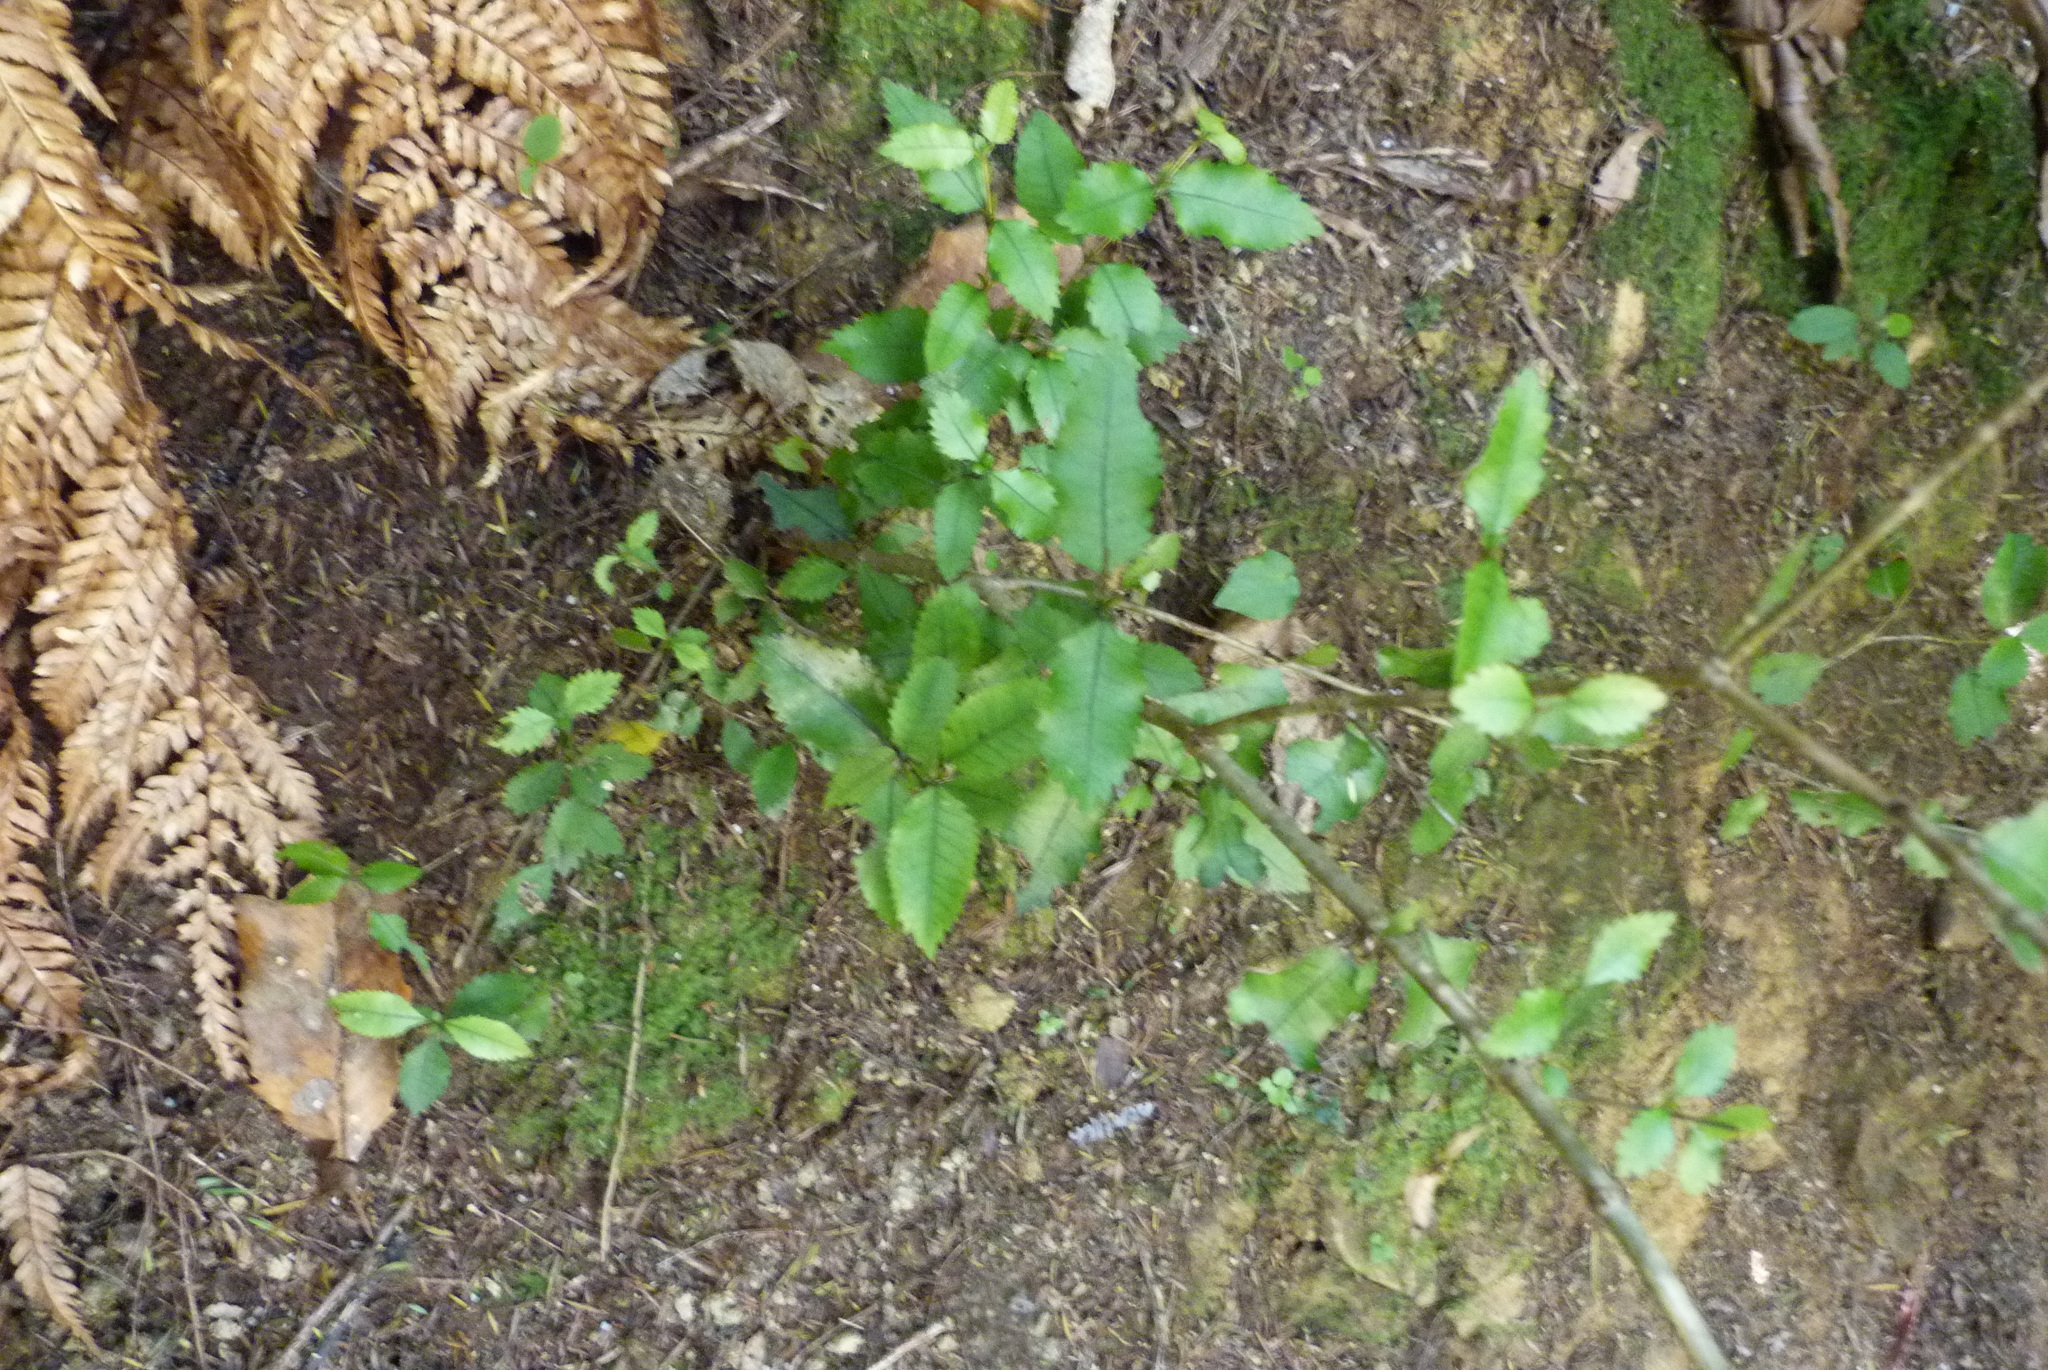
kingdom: Plantae
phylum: Tracheophyta
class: Magnoliopsida
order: Oxalidales
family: Cunoniaceae
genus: Pterophylla
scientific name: Pterophylla racemosa
